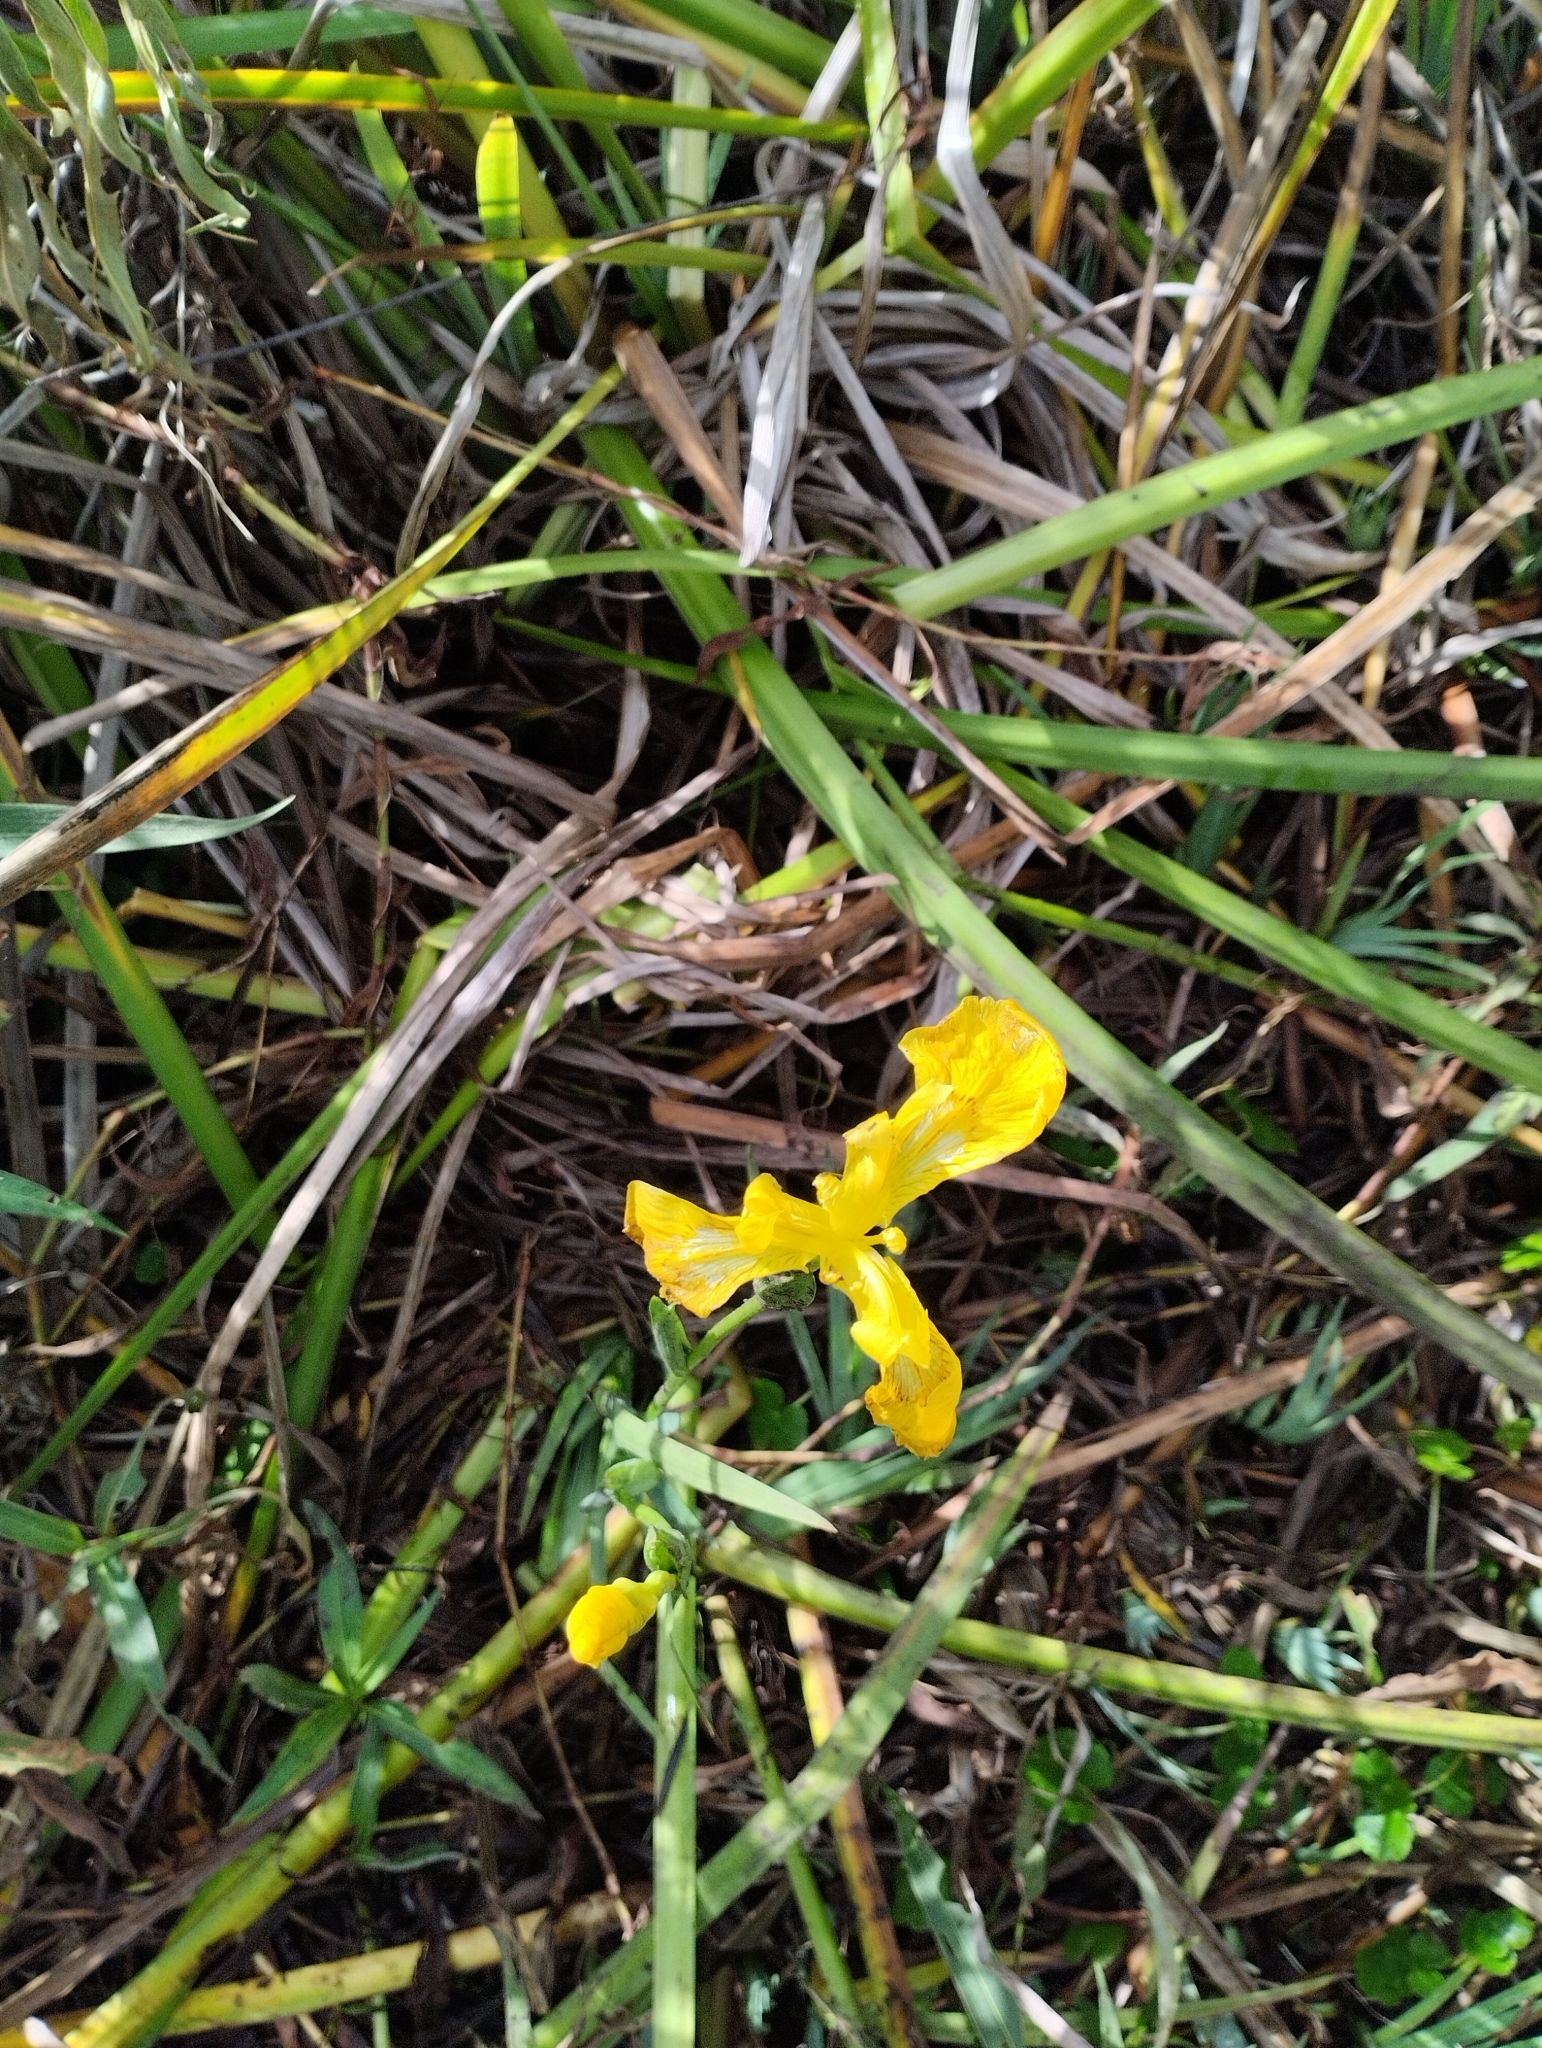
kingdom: Plantae
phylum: Tracheophyta
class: Liliopsida
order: Asparagales
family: Iridaceae
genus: Iris
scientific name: Iris pseudacorus
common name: Yellow flag
